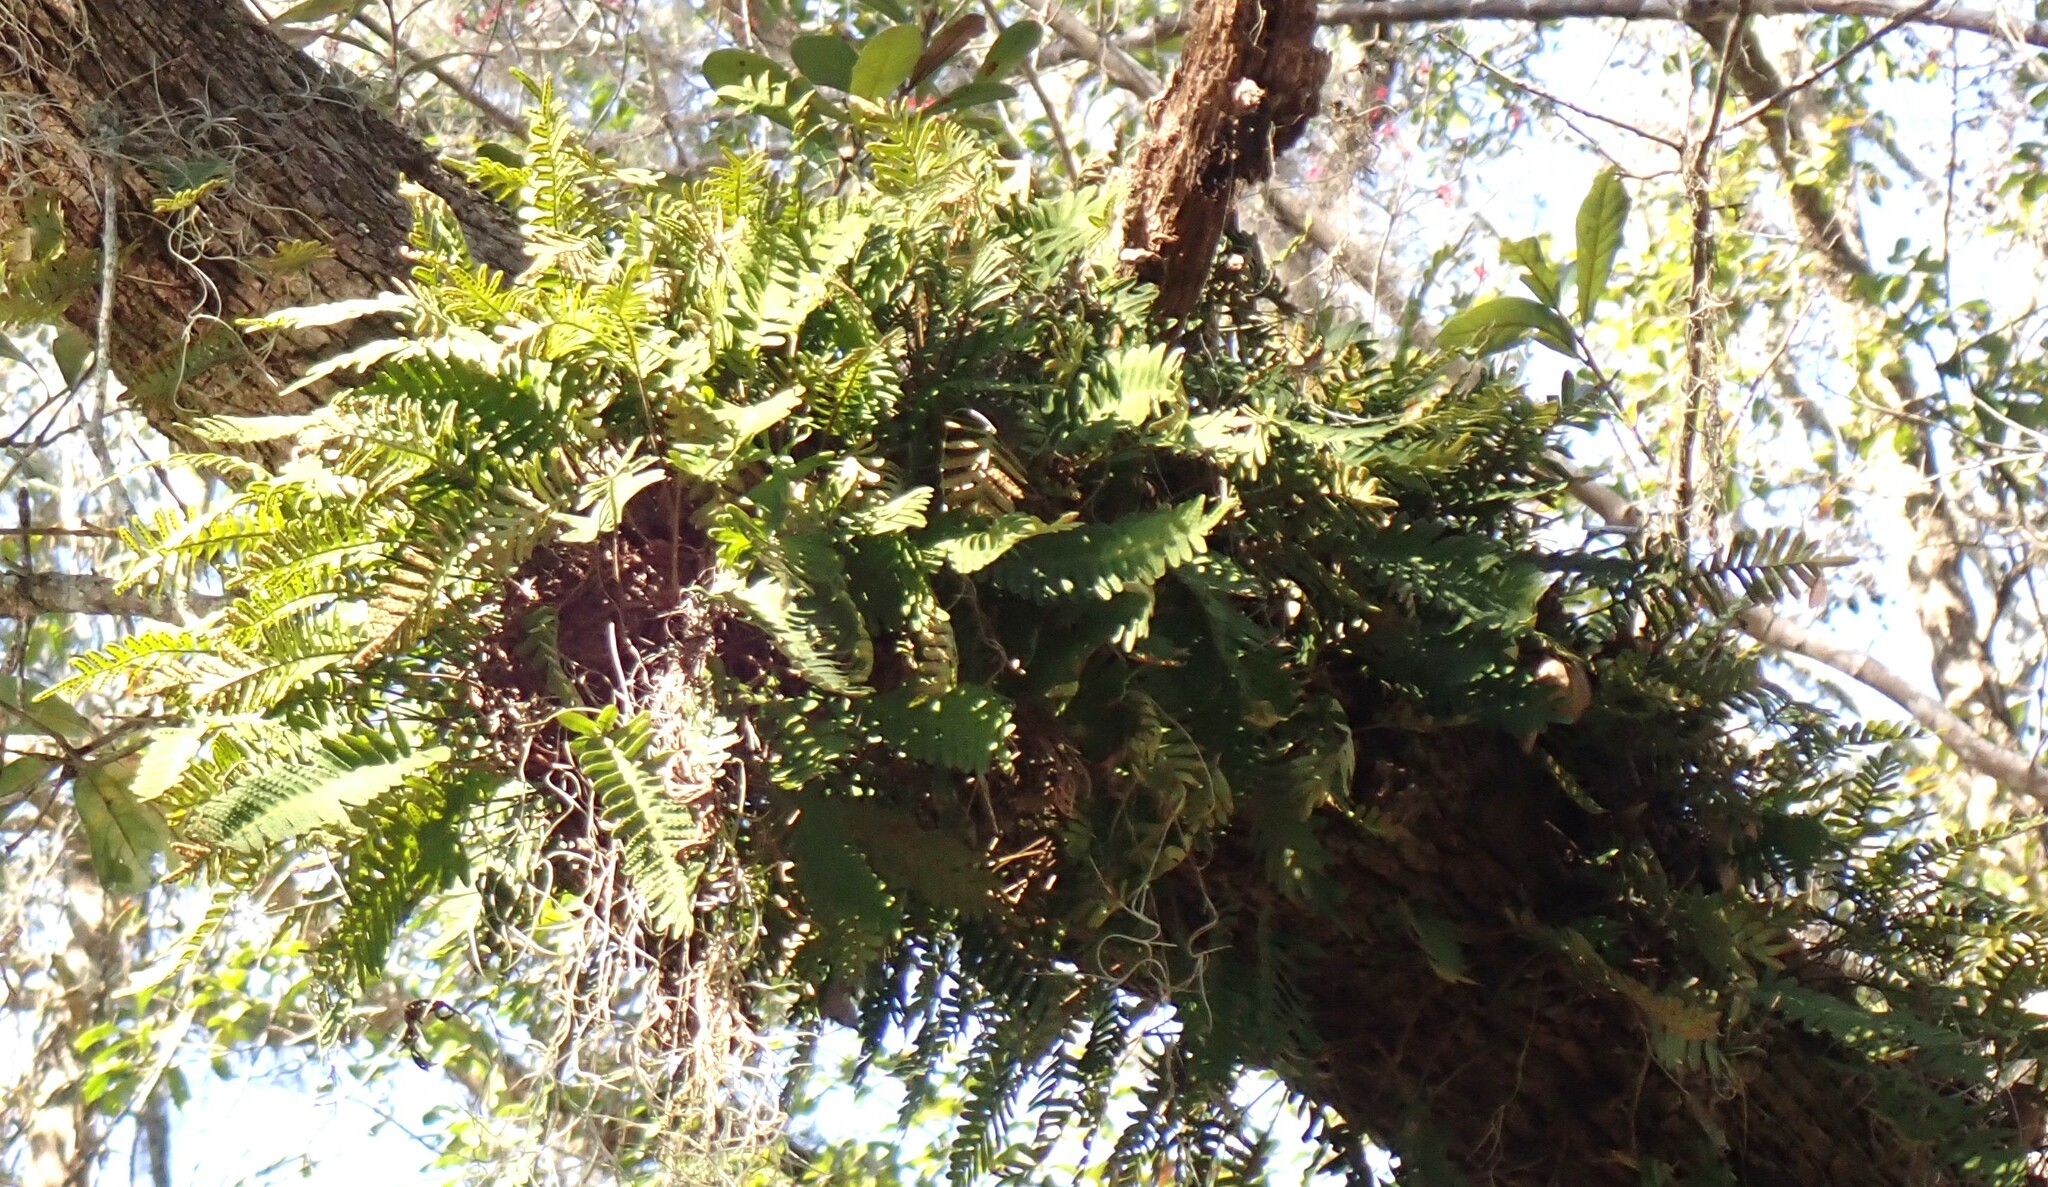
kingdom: Plantae
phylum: Tracheophyta
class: Polypodiopsida
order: Polypodiales
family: Polypodiaceae
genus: Pleopeltis
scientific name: Pleopeltis michauxiana
